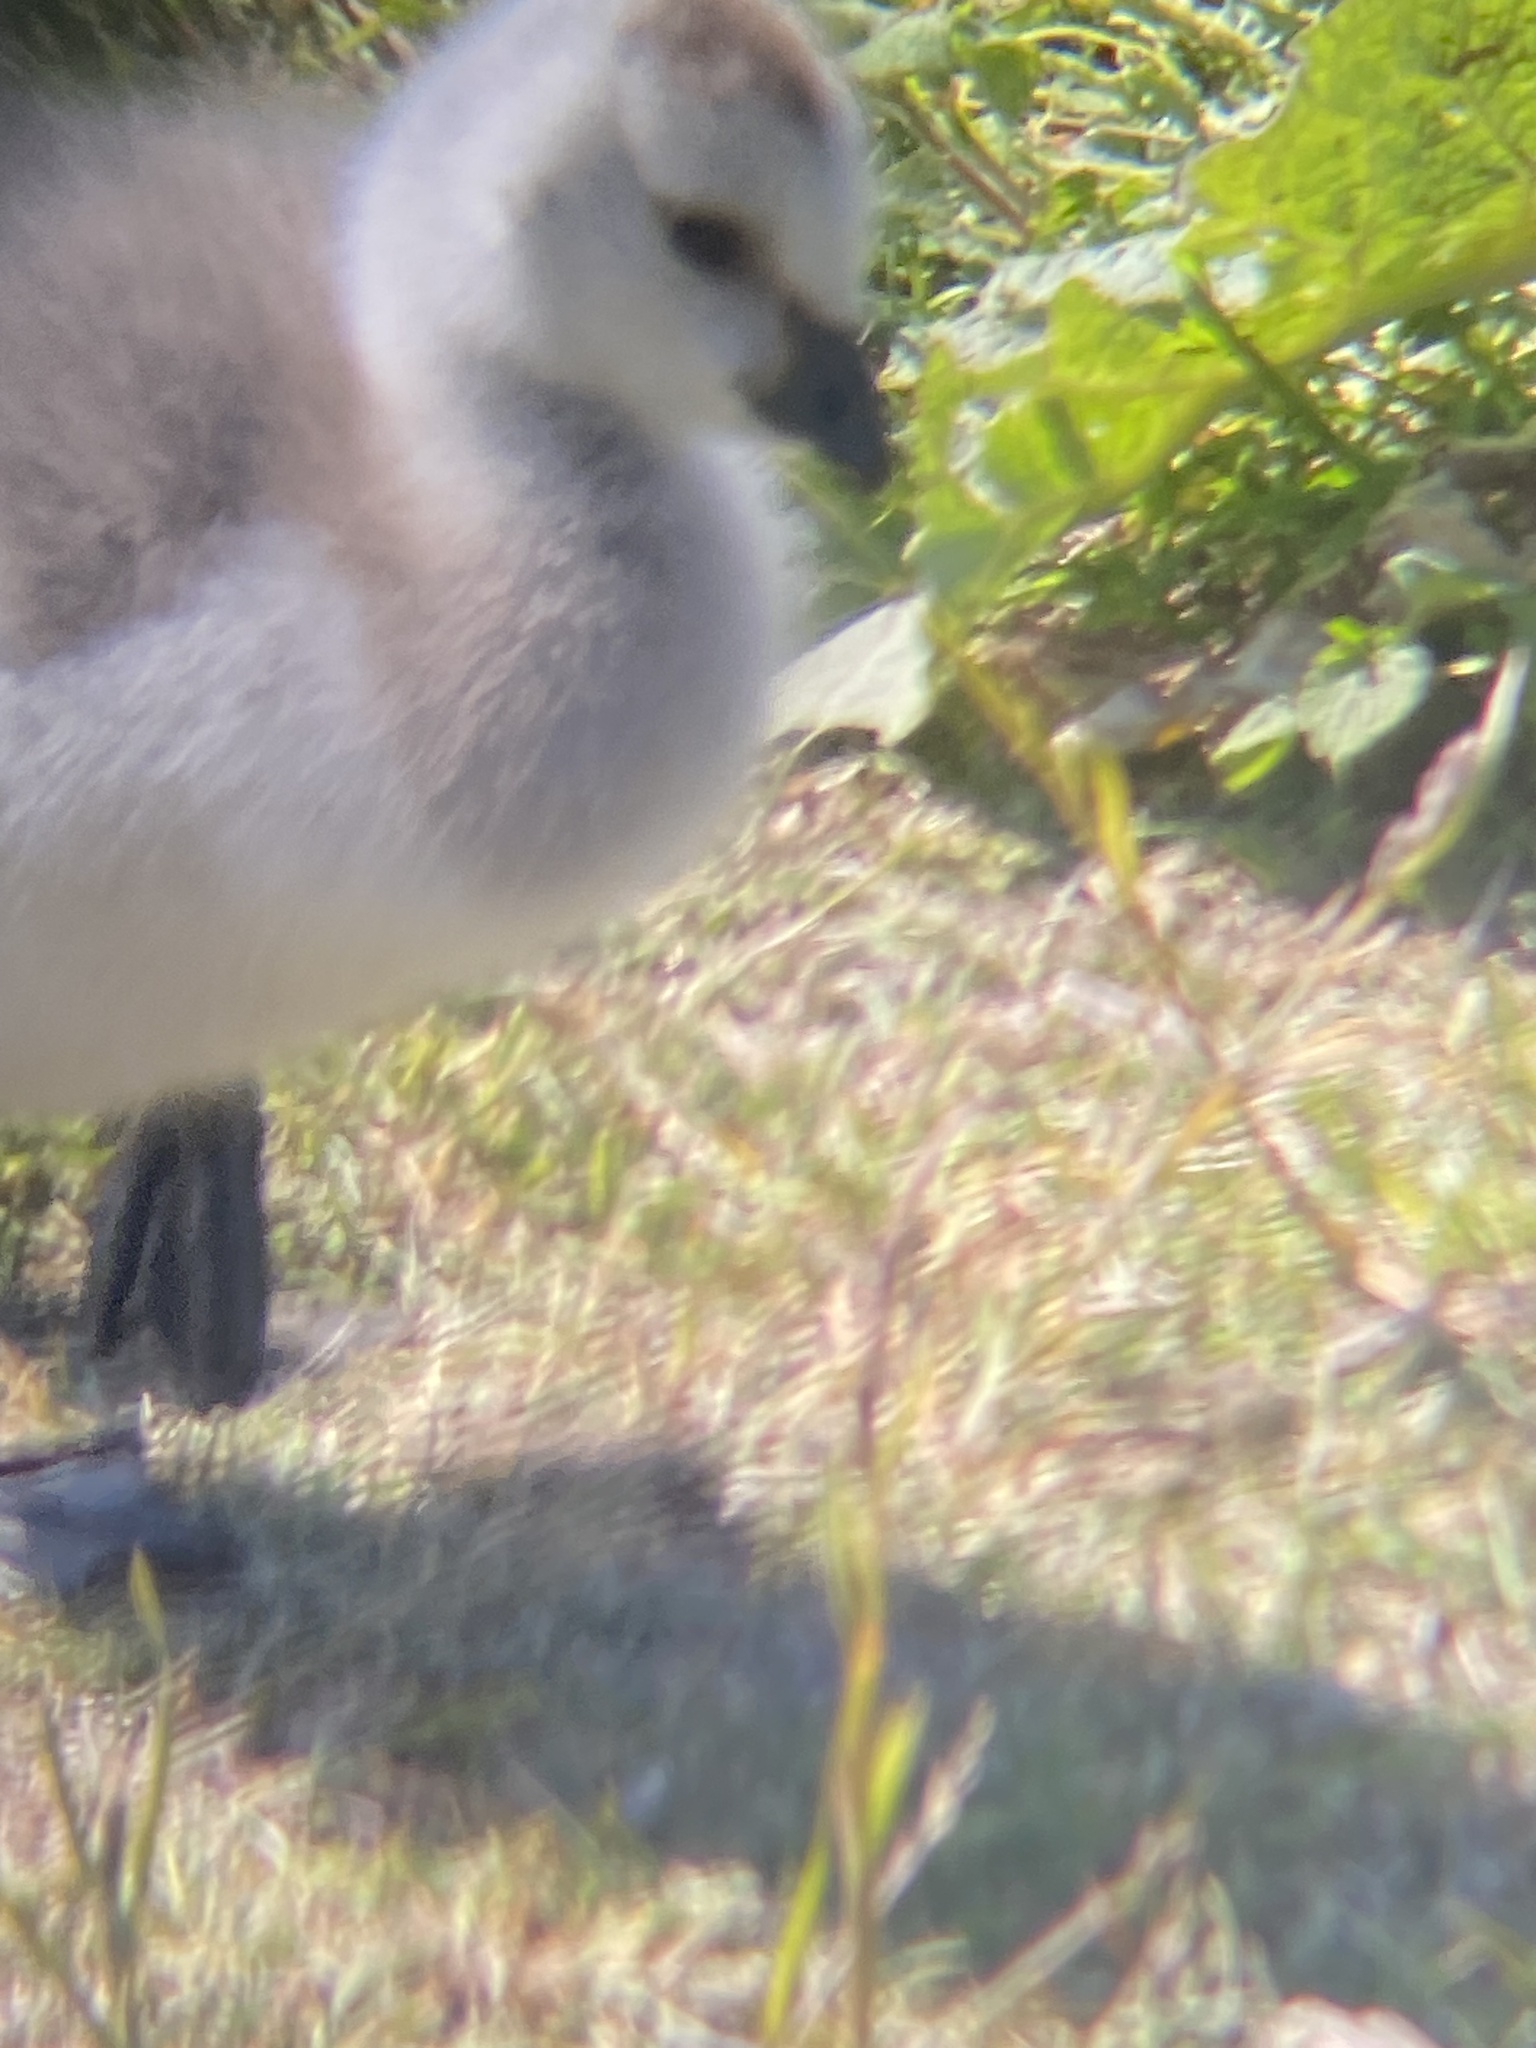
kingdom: Animalia
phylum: Chordata
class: Aves
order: Anseriformes
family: Anatidae
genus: Branta
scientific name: Branta leucopsis
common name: Barnacle goose
